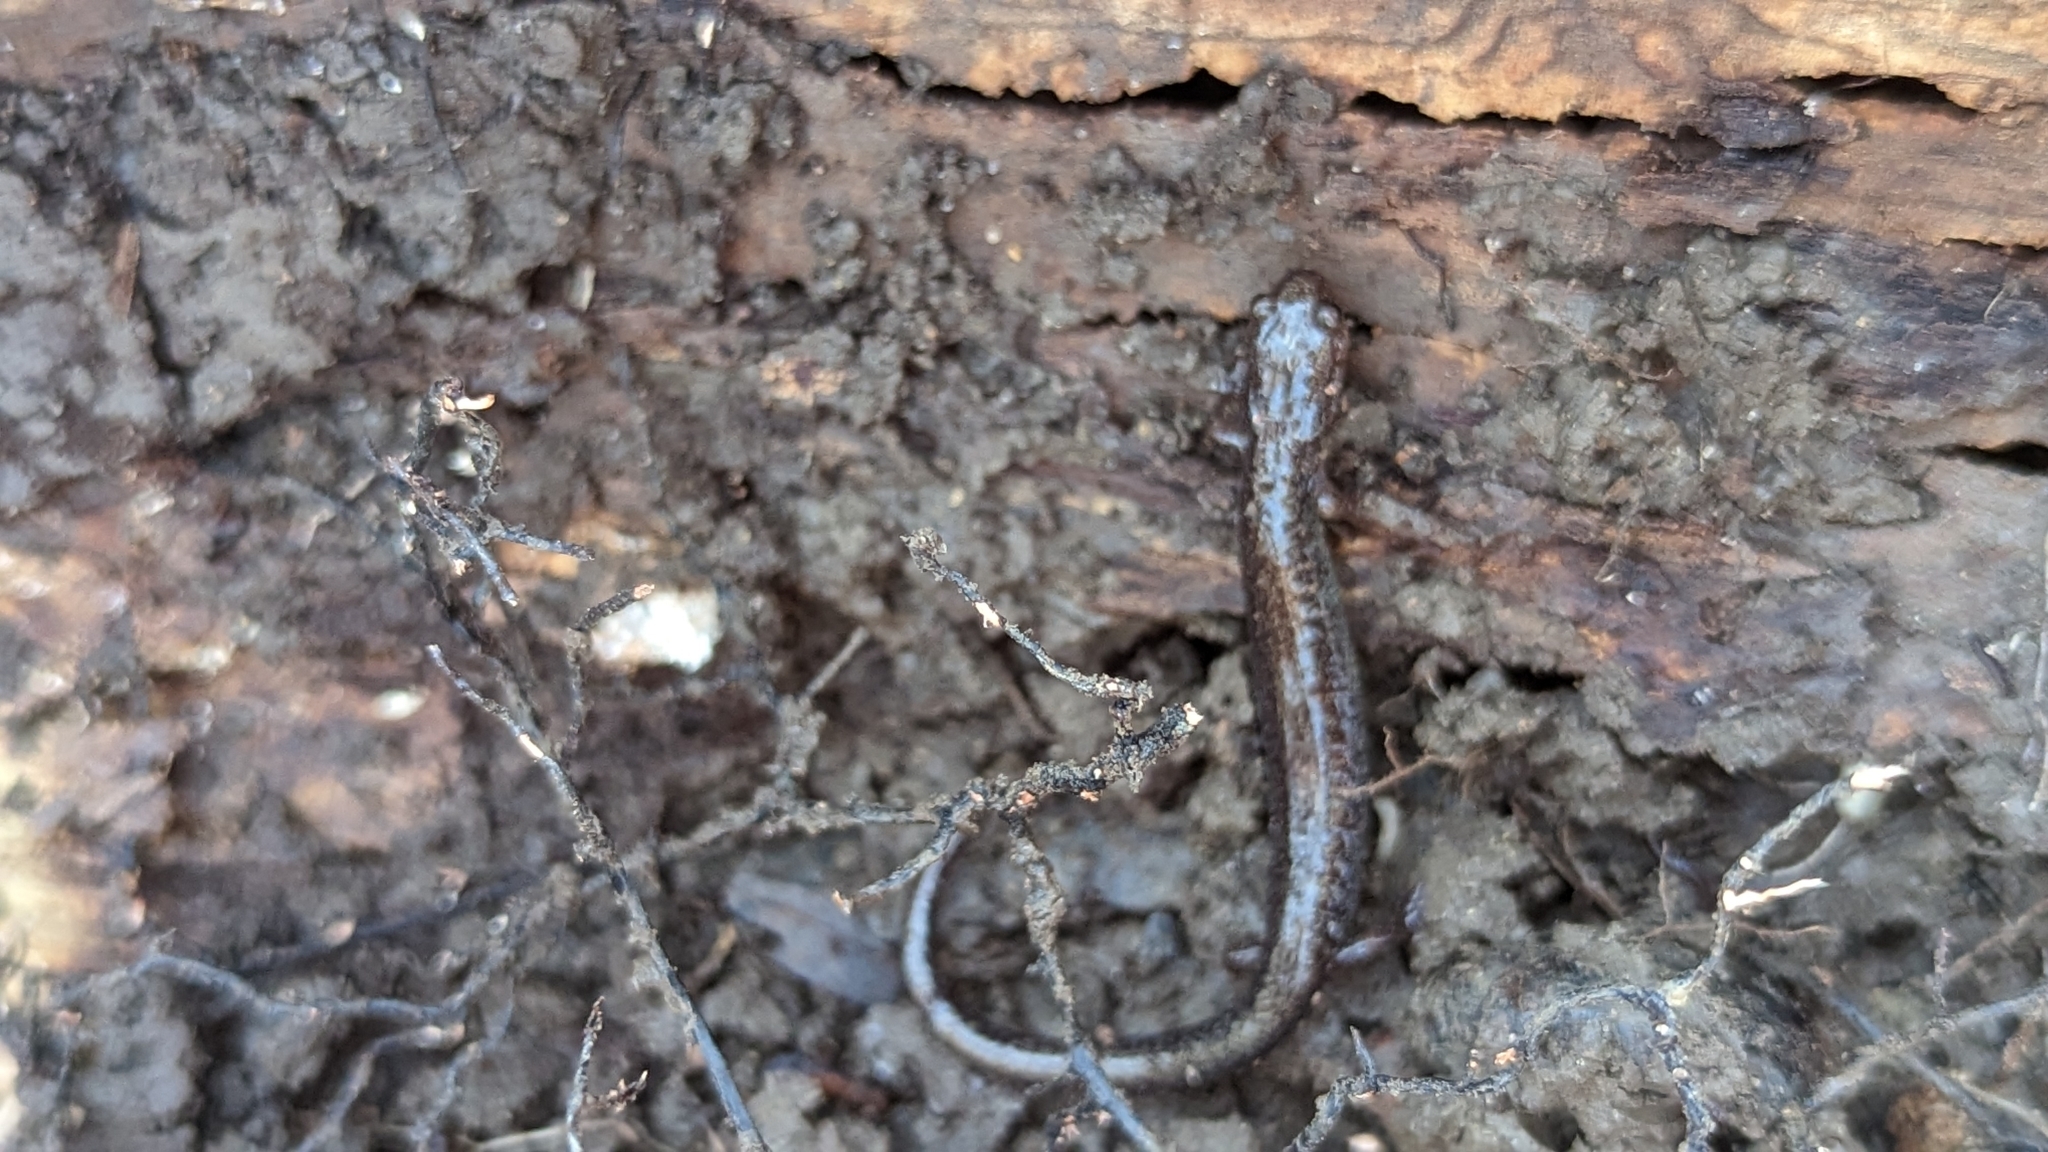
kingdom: Animalia
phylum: Chordata
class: Amphibia
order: Caudata
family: Plethodontidae
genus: Plethodon
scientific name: Plethodon cinereus
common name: Redback salamander
